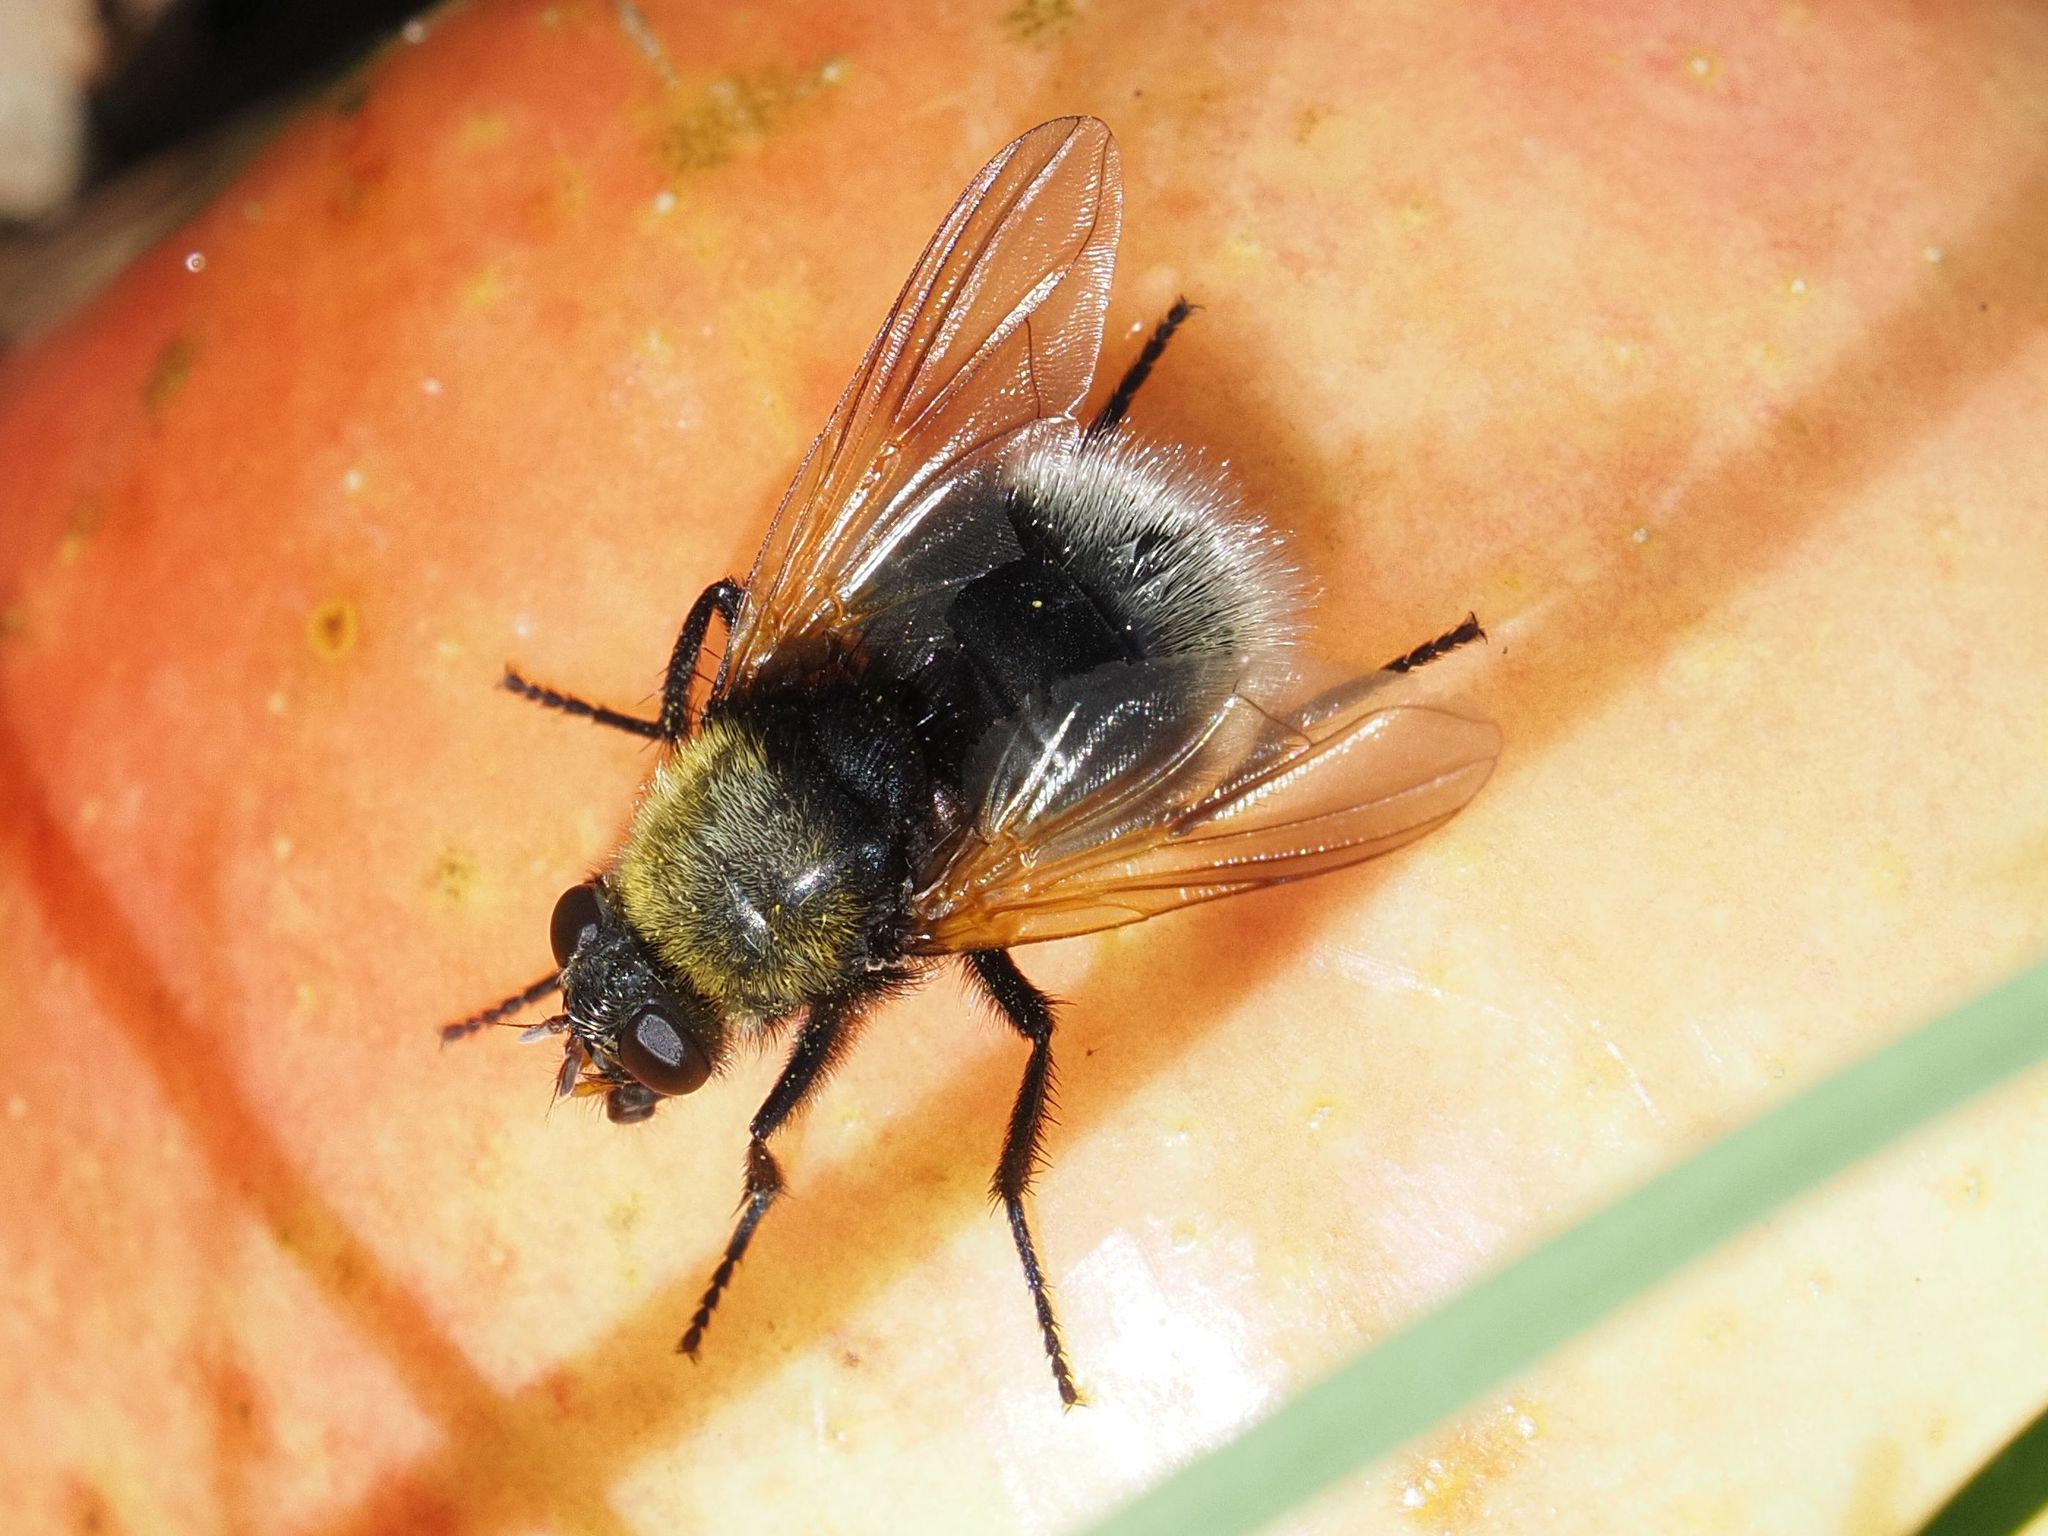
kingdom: Animalia
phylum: Arthropoda
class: Insecta
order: Diptera
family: Muscidae
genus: Mesembrina
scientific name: Mesembrina mystacea
